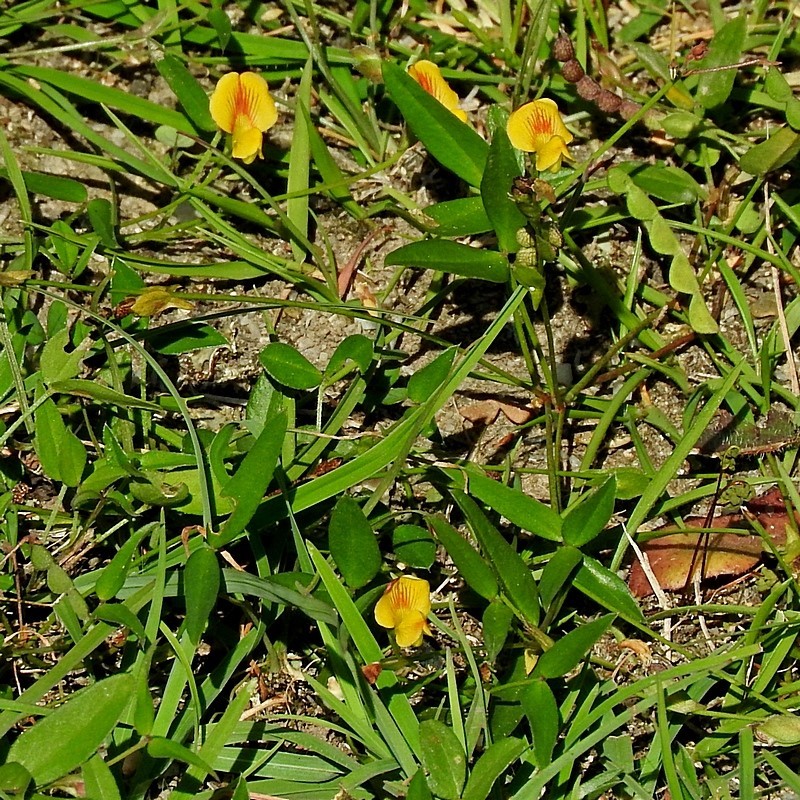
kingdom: Plantae
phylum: Tracheophyta
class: Magnoliopsida
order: Fabales
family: Fabaceae
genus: Zornia
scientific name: Zornia dyctiocarpa
